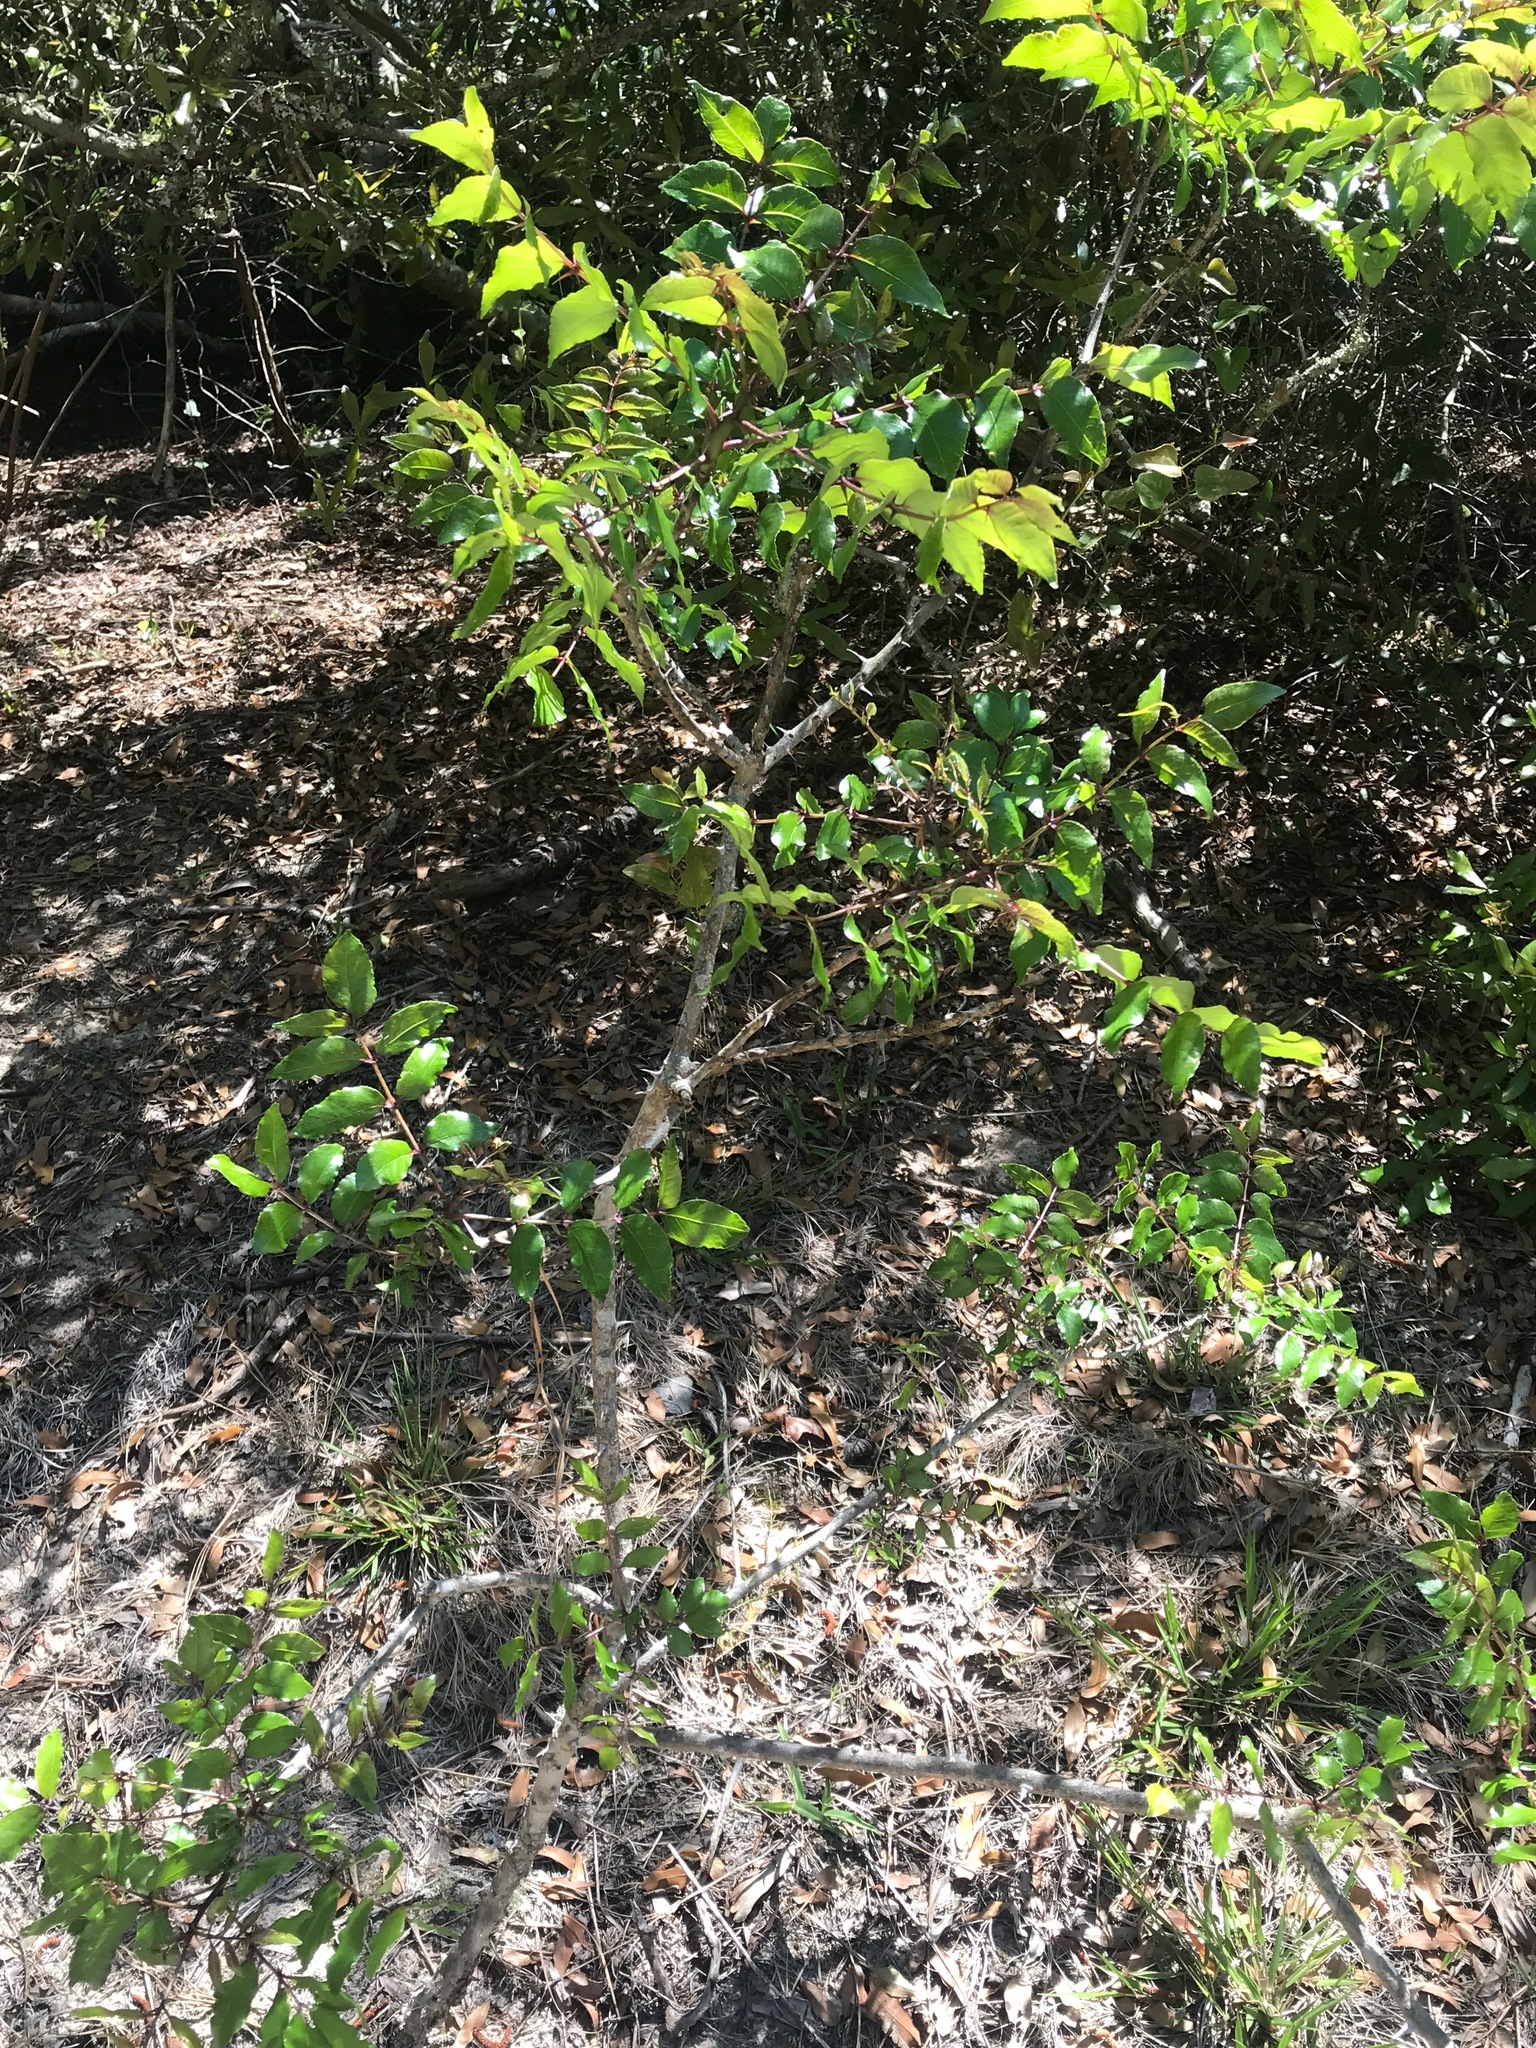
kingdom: Plantae
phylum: Tracheophyta
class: Magnoliopsida
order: Sapindales
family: Rutaceae
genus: Zanthoxylum
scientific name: Zanthoxylum clava-herculis
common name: Hercules'-club
